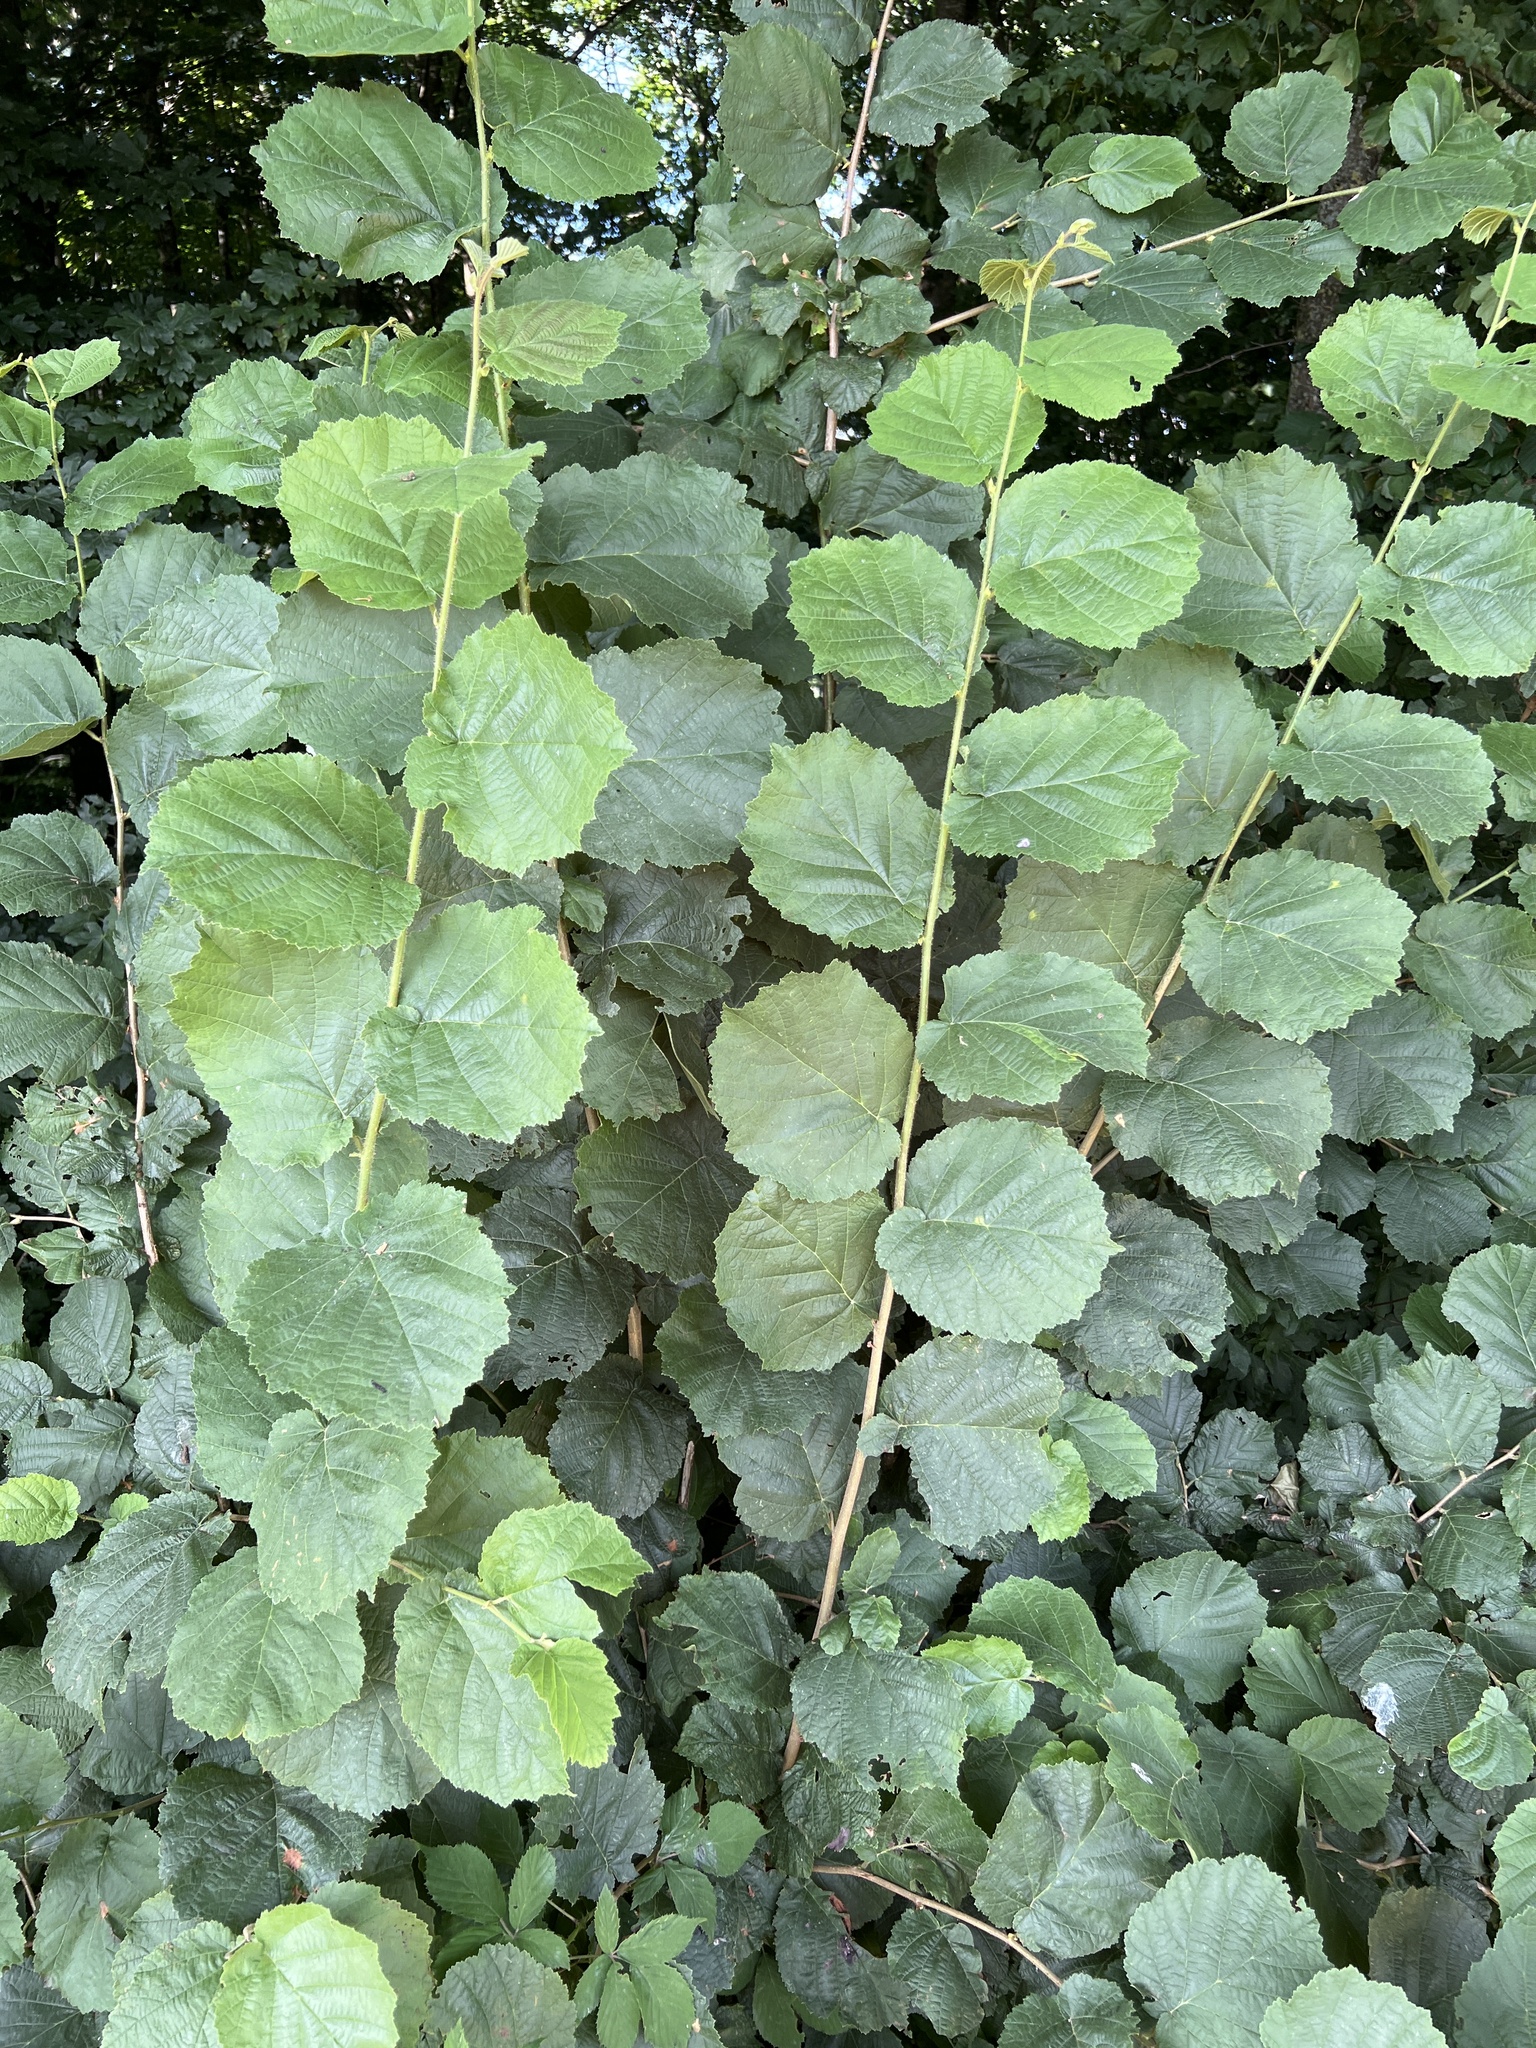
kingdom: Plantae
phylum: Tracheophyta
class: Magnoliopsida
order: Fagales
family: Betulaceae
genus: Corylus
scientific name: Corylus avellana
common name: European hazel
